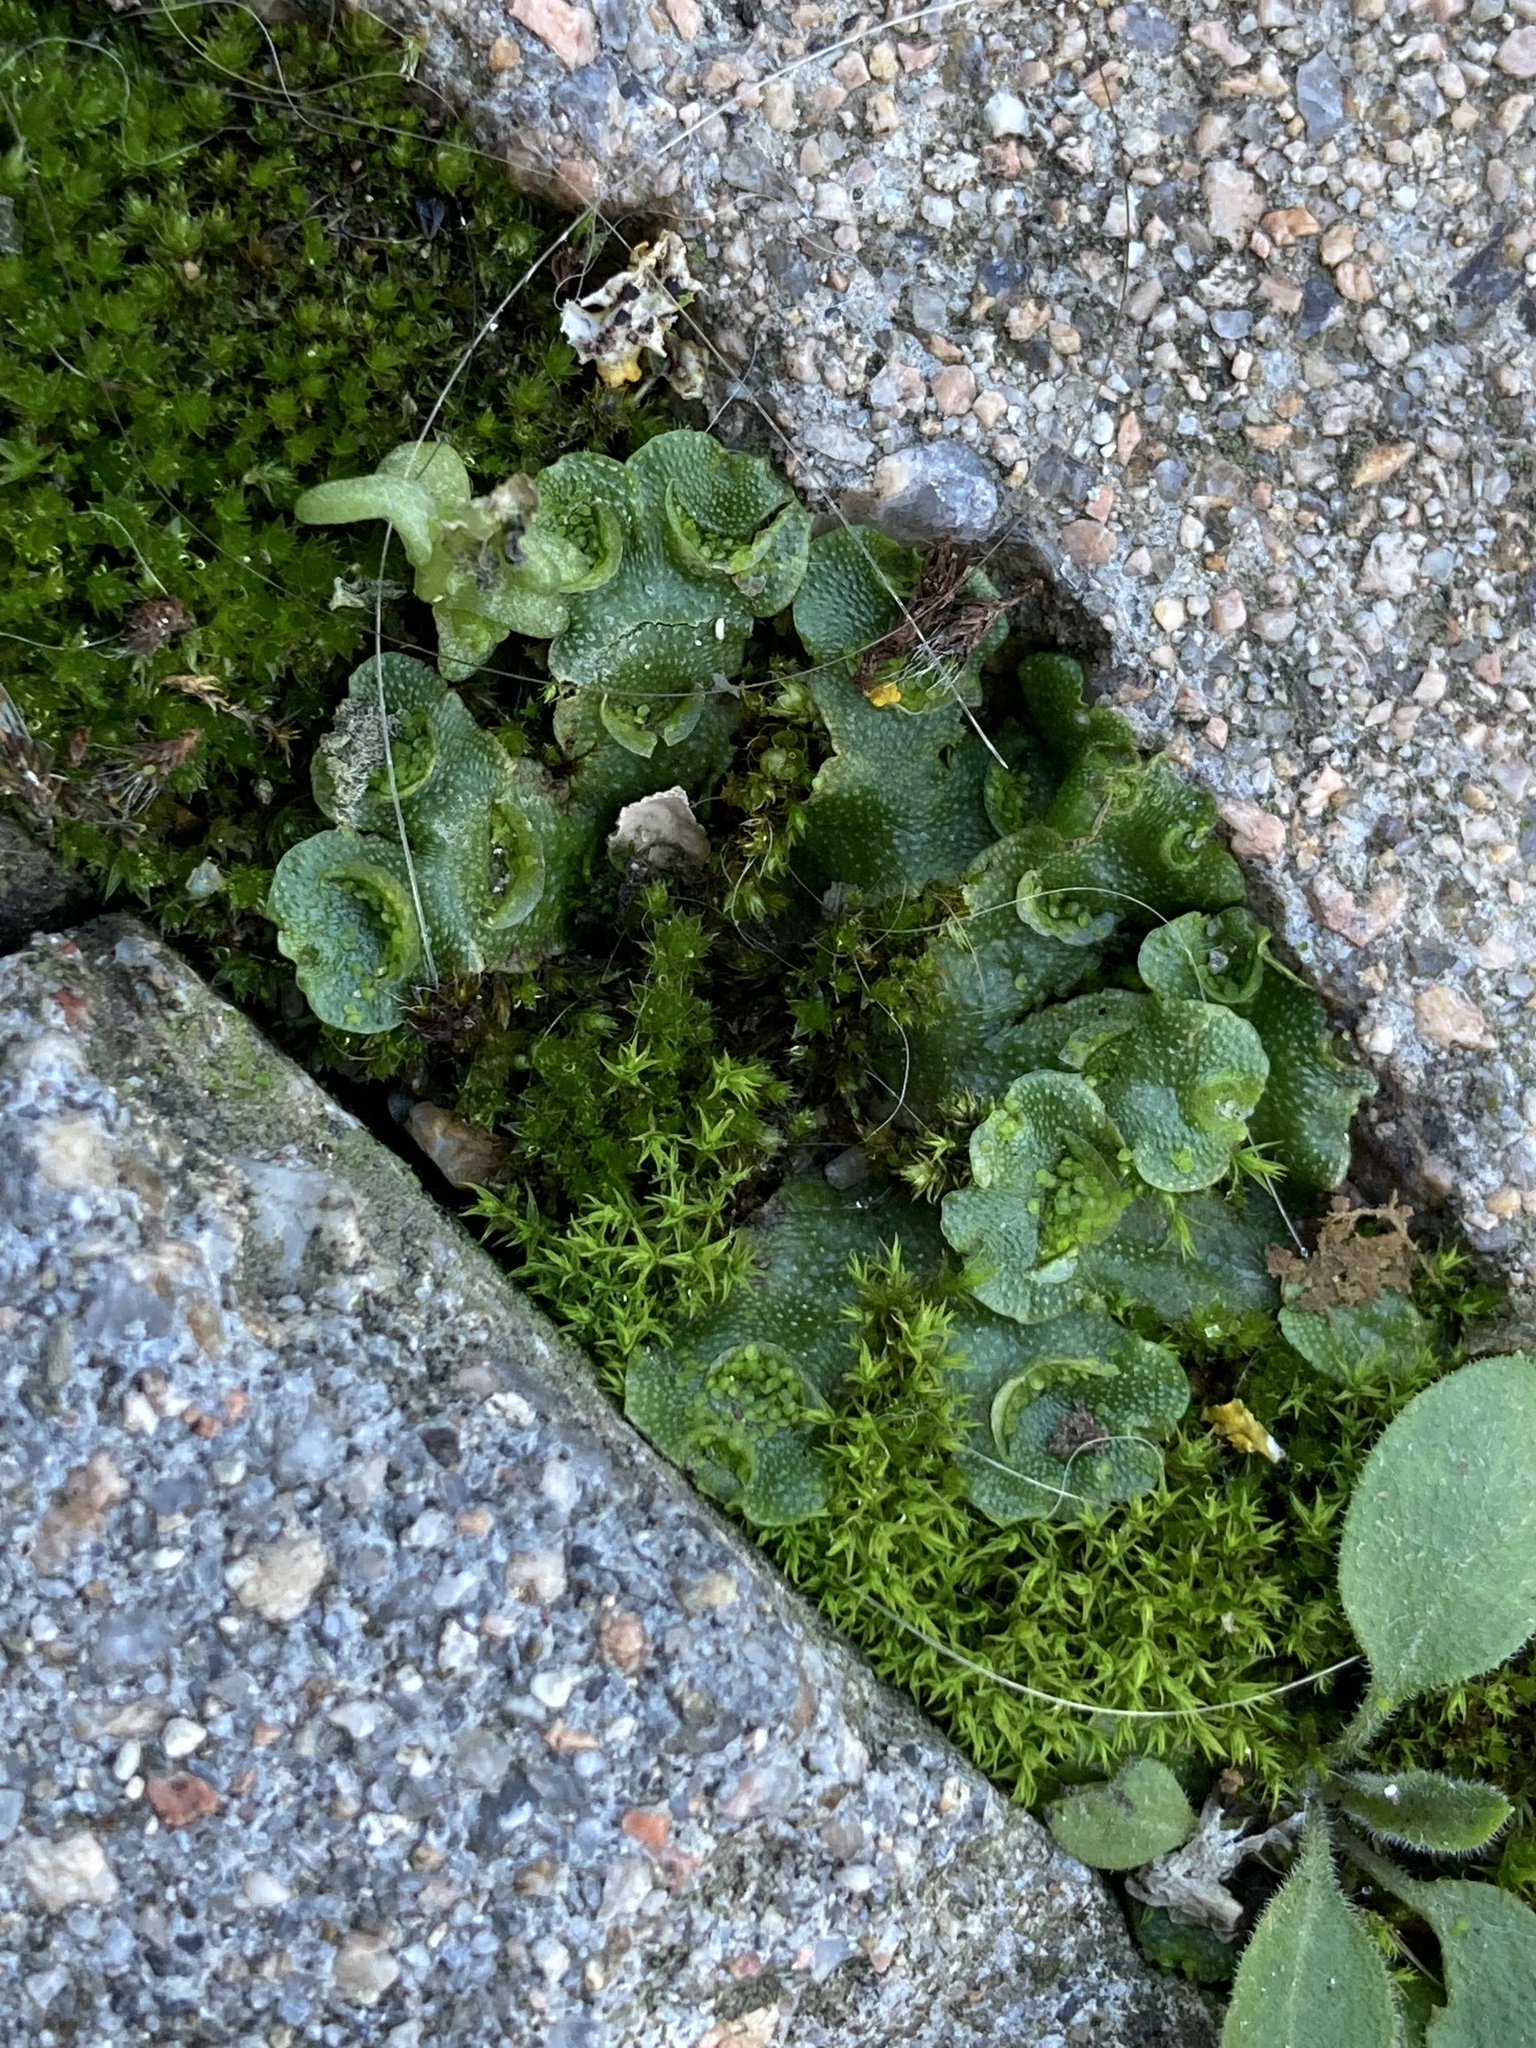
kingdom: Plantae
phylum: Marchantiophyta
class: Marchantiopsida
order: Lunulariales
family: Lunulariaceae
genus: Lunularia
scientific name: Lunularia cruciata
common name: Crescent-cup liverwort
